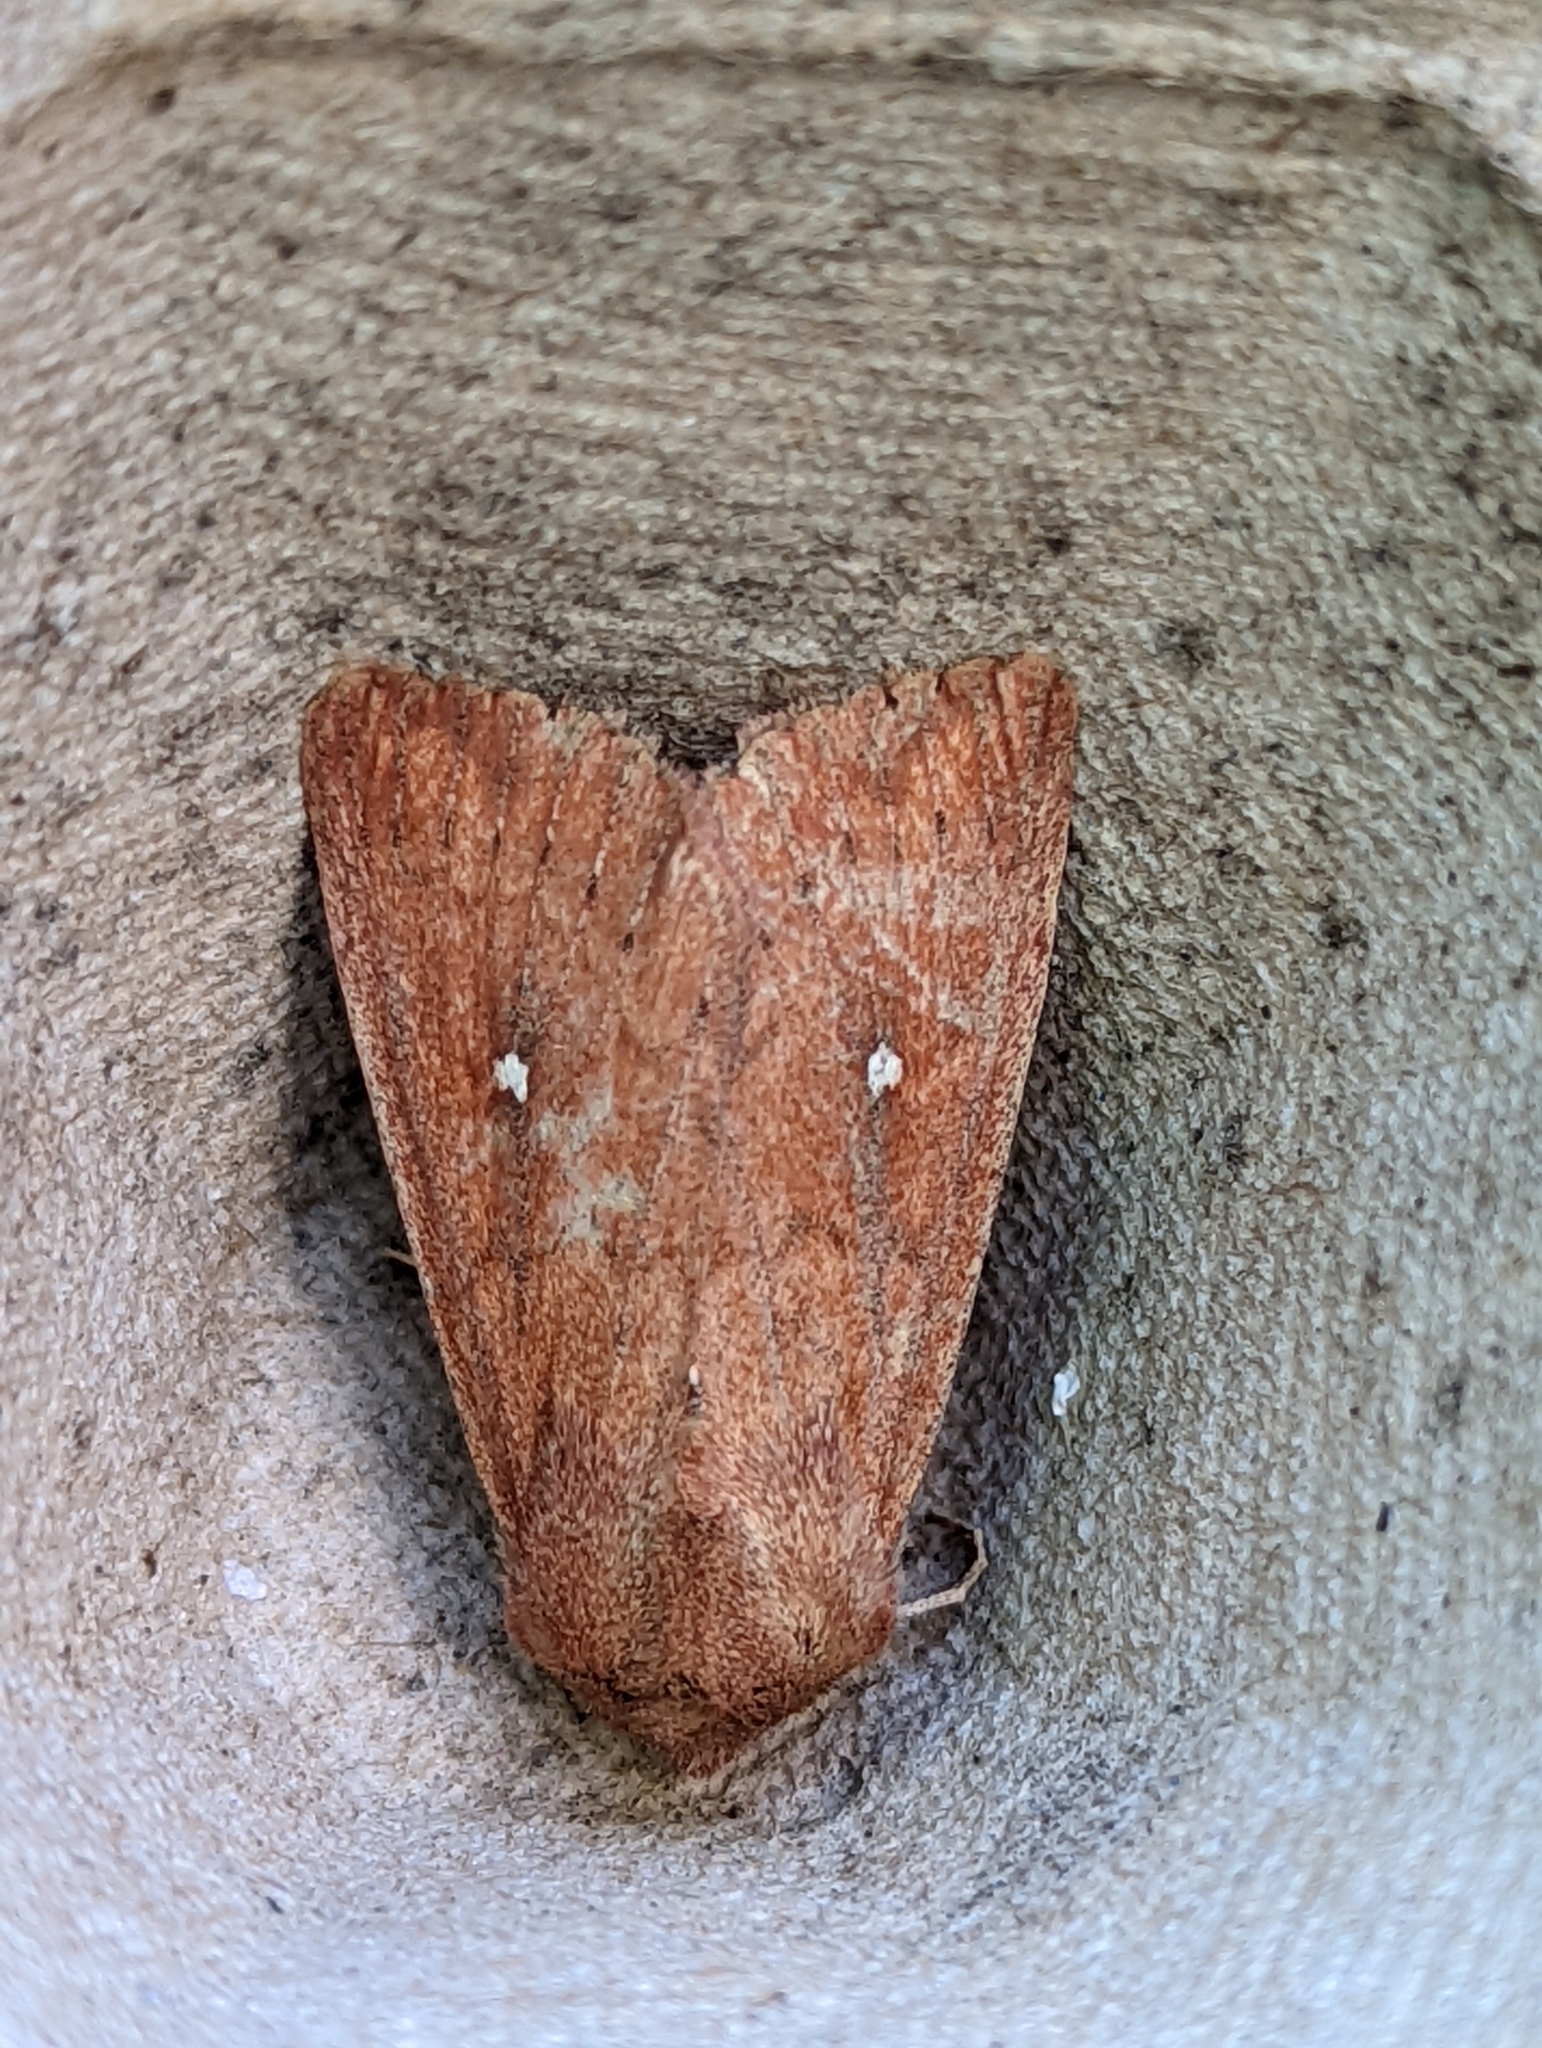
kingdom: Animalia
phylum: Arthropoda
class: Insecta
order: Lepidoptera
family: Noctuidae
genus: Mythimna
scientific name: Mythimna albipuncta
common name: White-point
